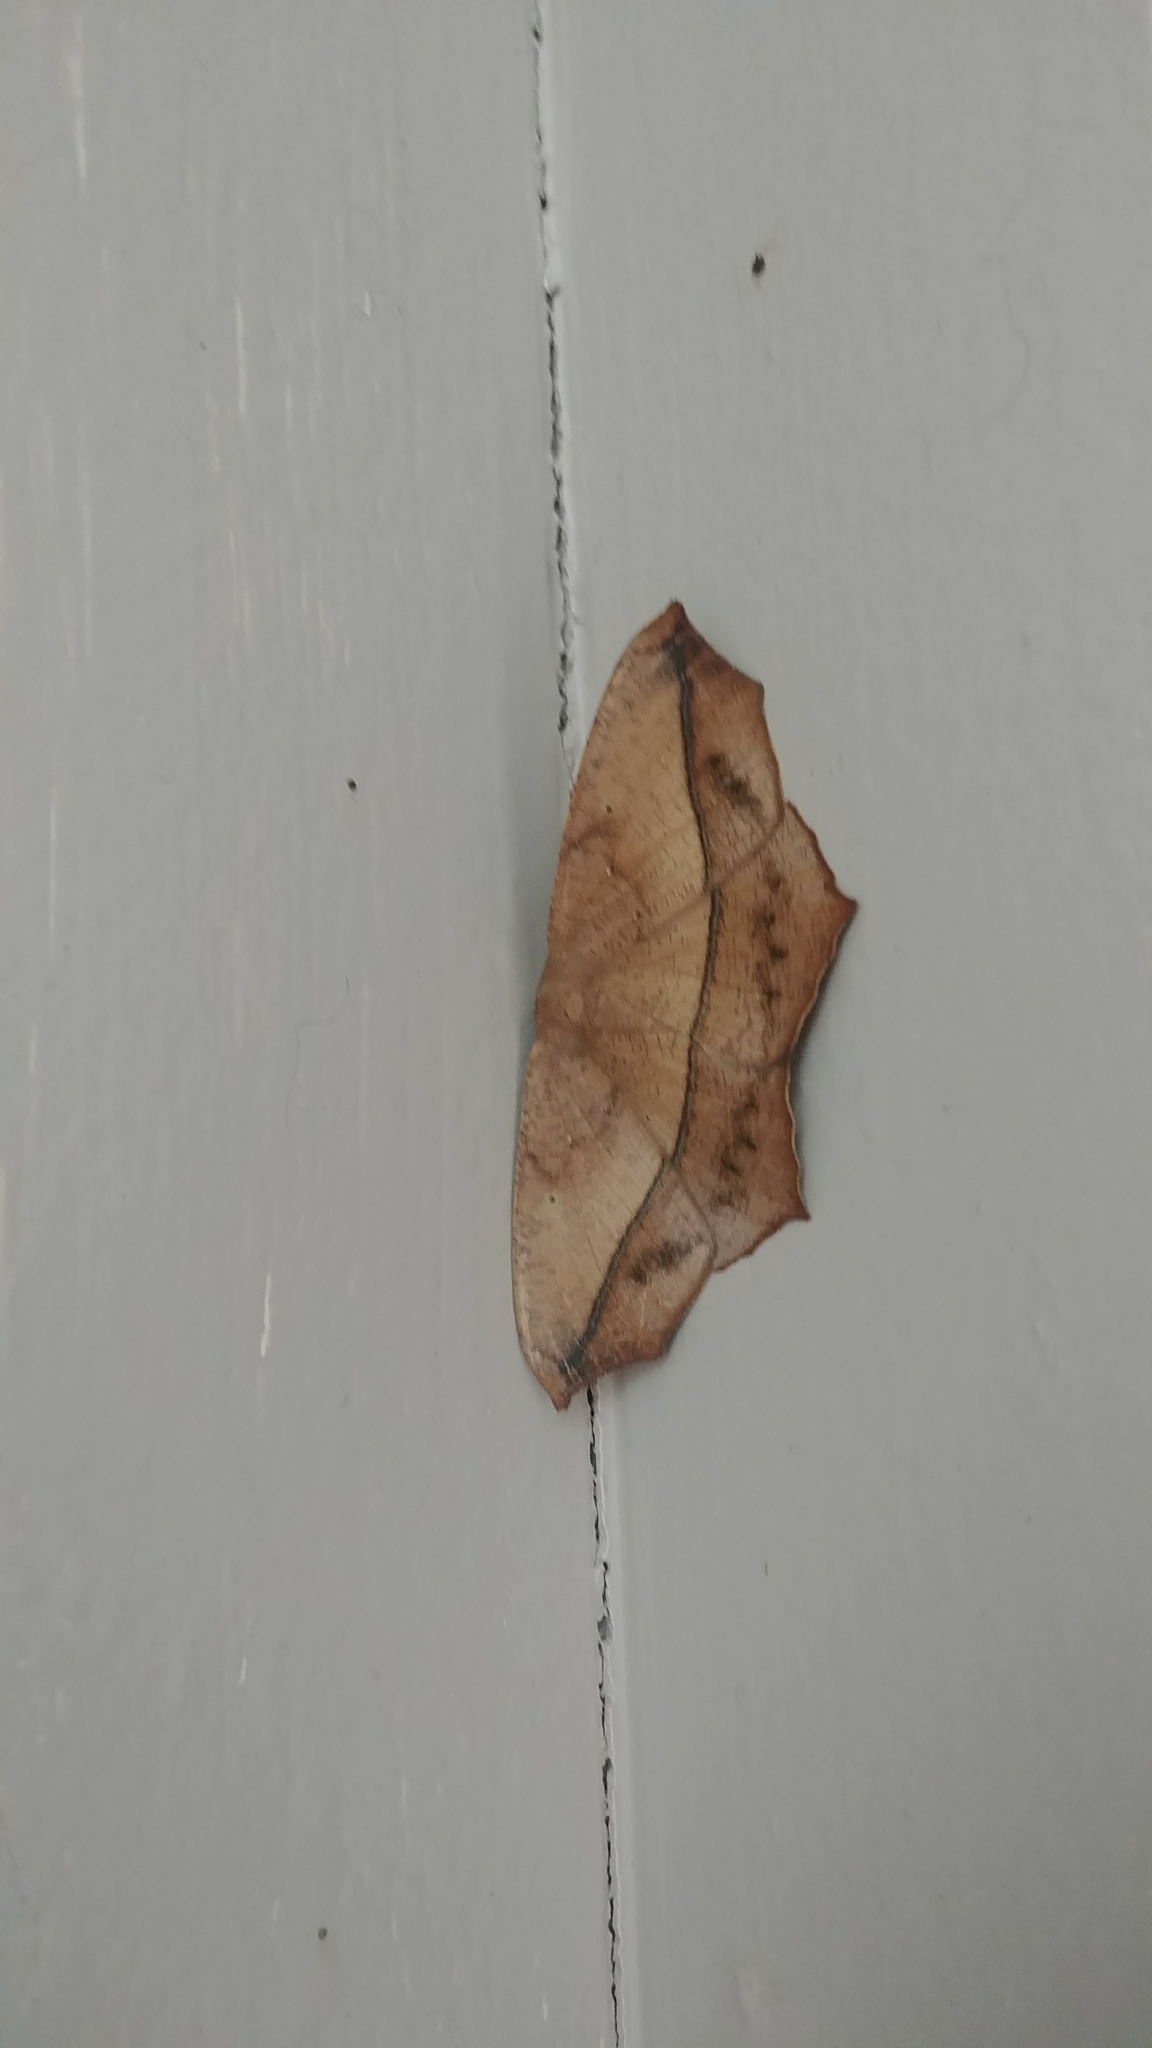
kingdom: Animalia
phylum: Arthropoda
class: Insecta
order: Lepidoptera
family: Geometridae
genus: Prochoerodes
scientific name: Prochoerodes lineola
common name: Large maple spanworm
